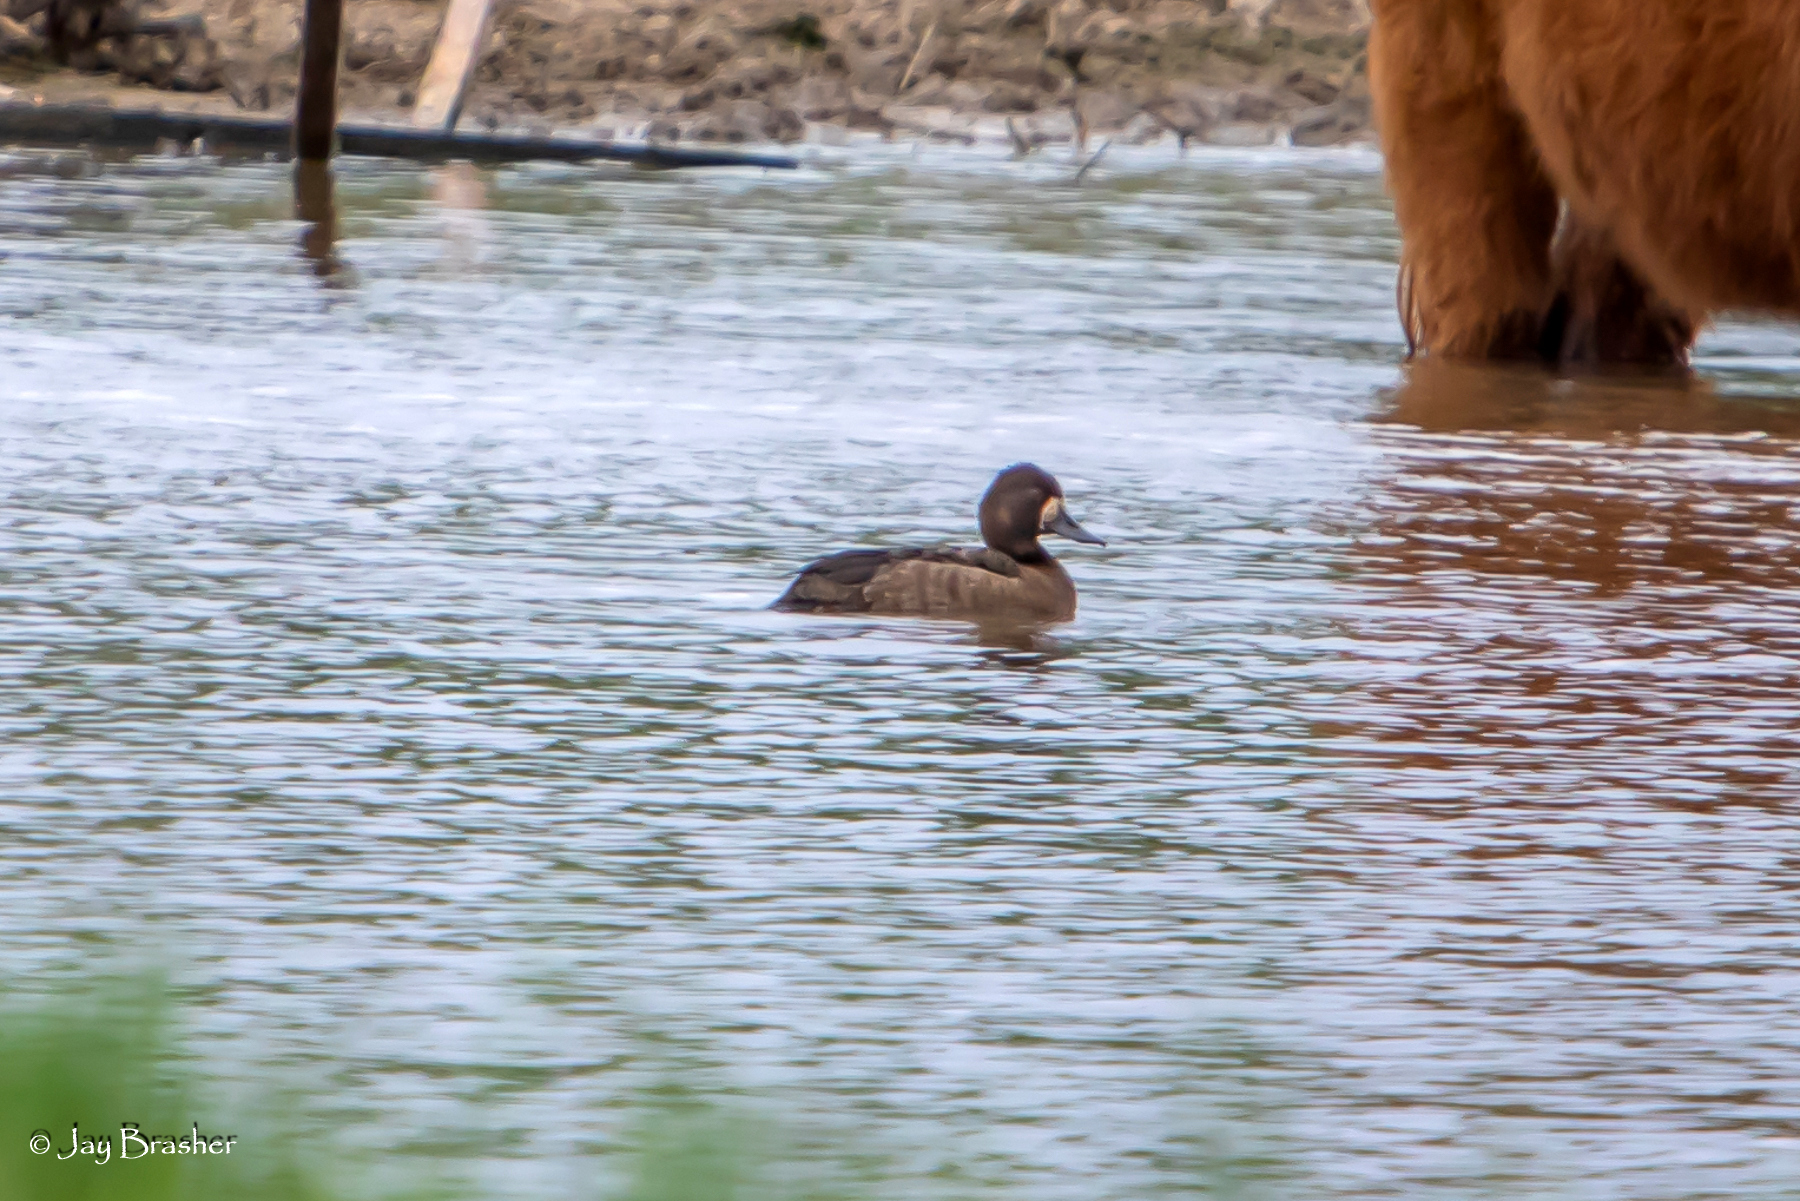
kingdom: Animalia
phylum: Chordata
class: Aves
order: Anseriformes
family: Anatidae
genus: Aythya
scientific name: Aythya affinis
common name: Lesser scaup
